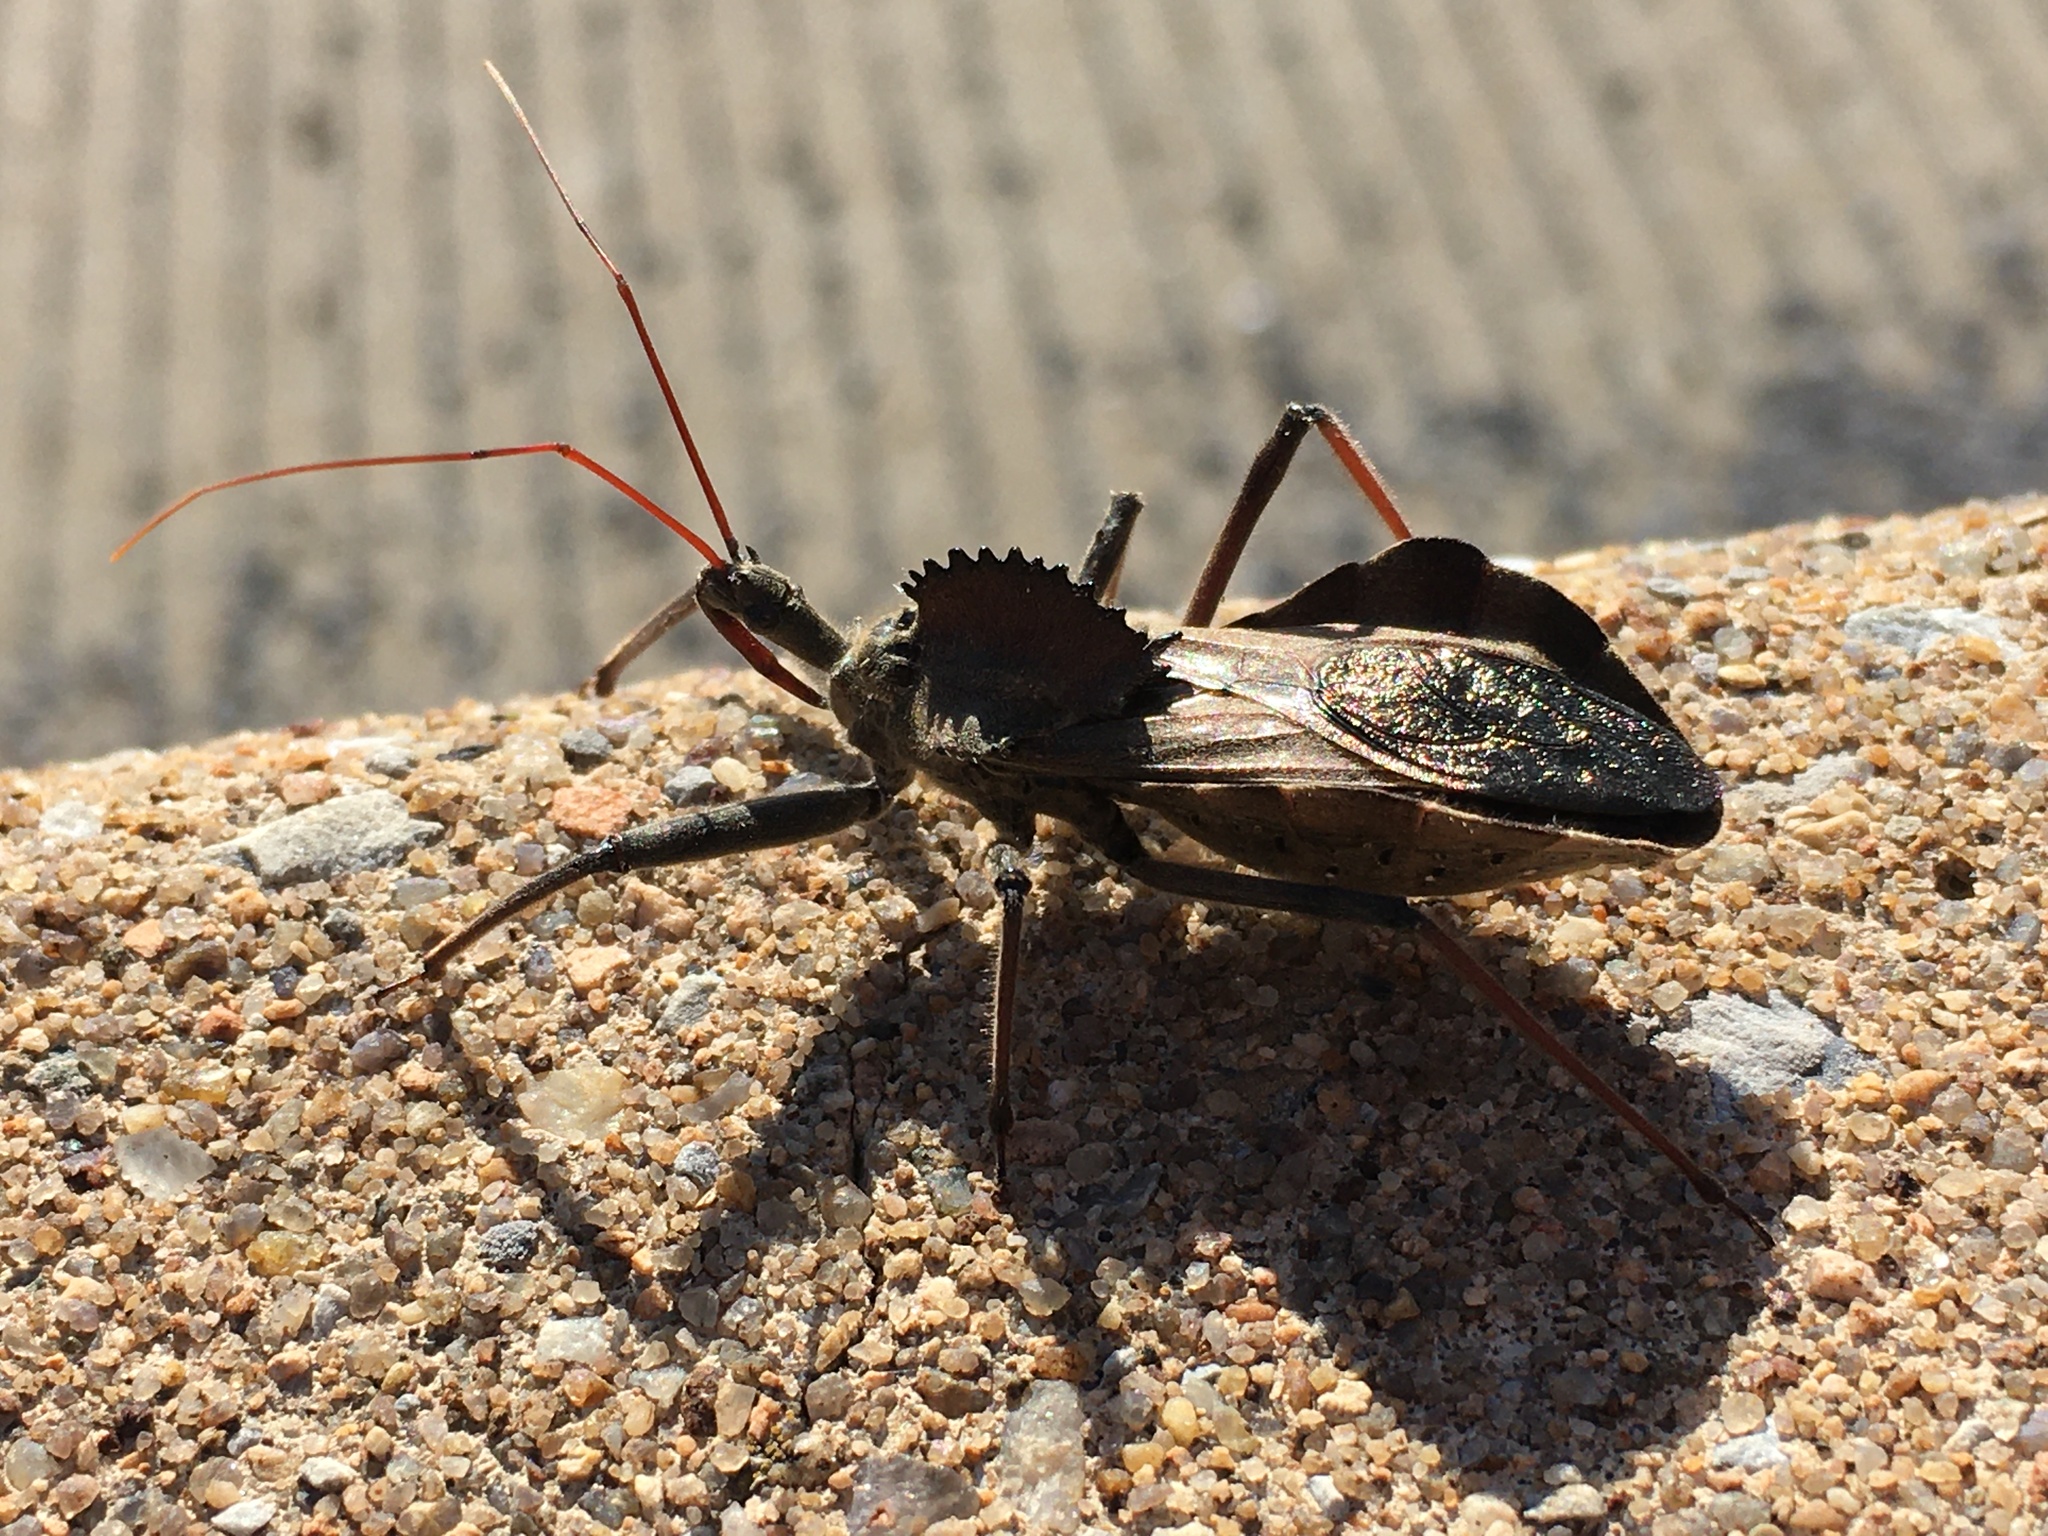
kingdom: Animalia
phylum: Arthropoda
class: Insecta
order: Hemiptera
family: Reduviidae
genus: Arilus
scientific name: Arilus cristatus
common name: North american wheel bug
